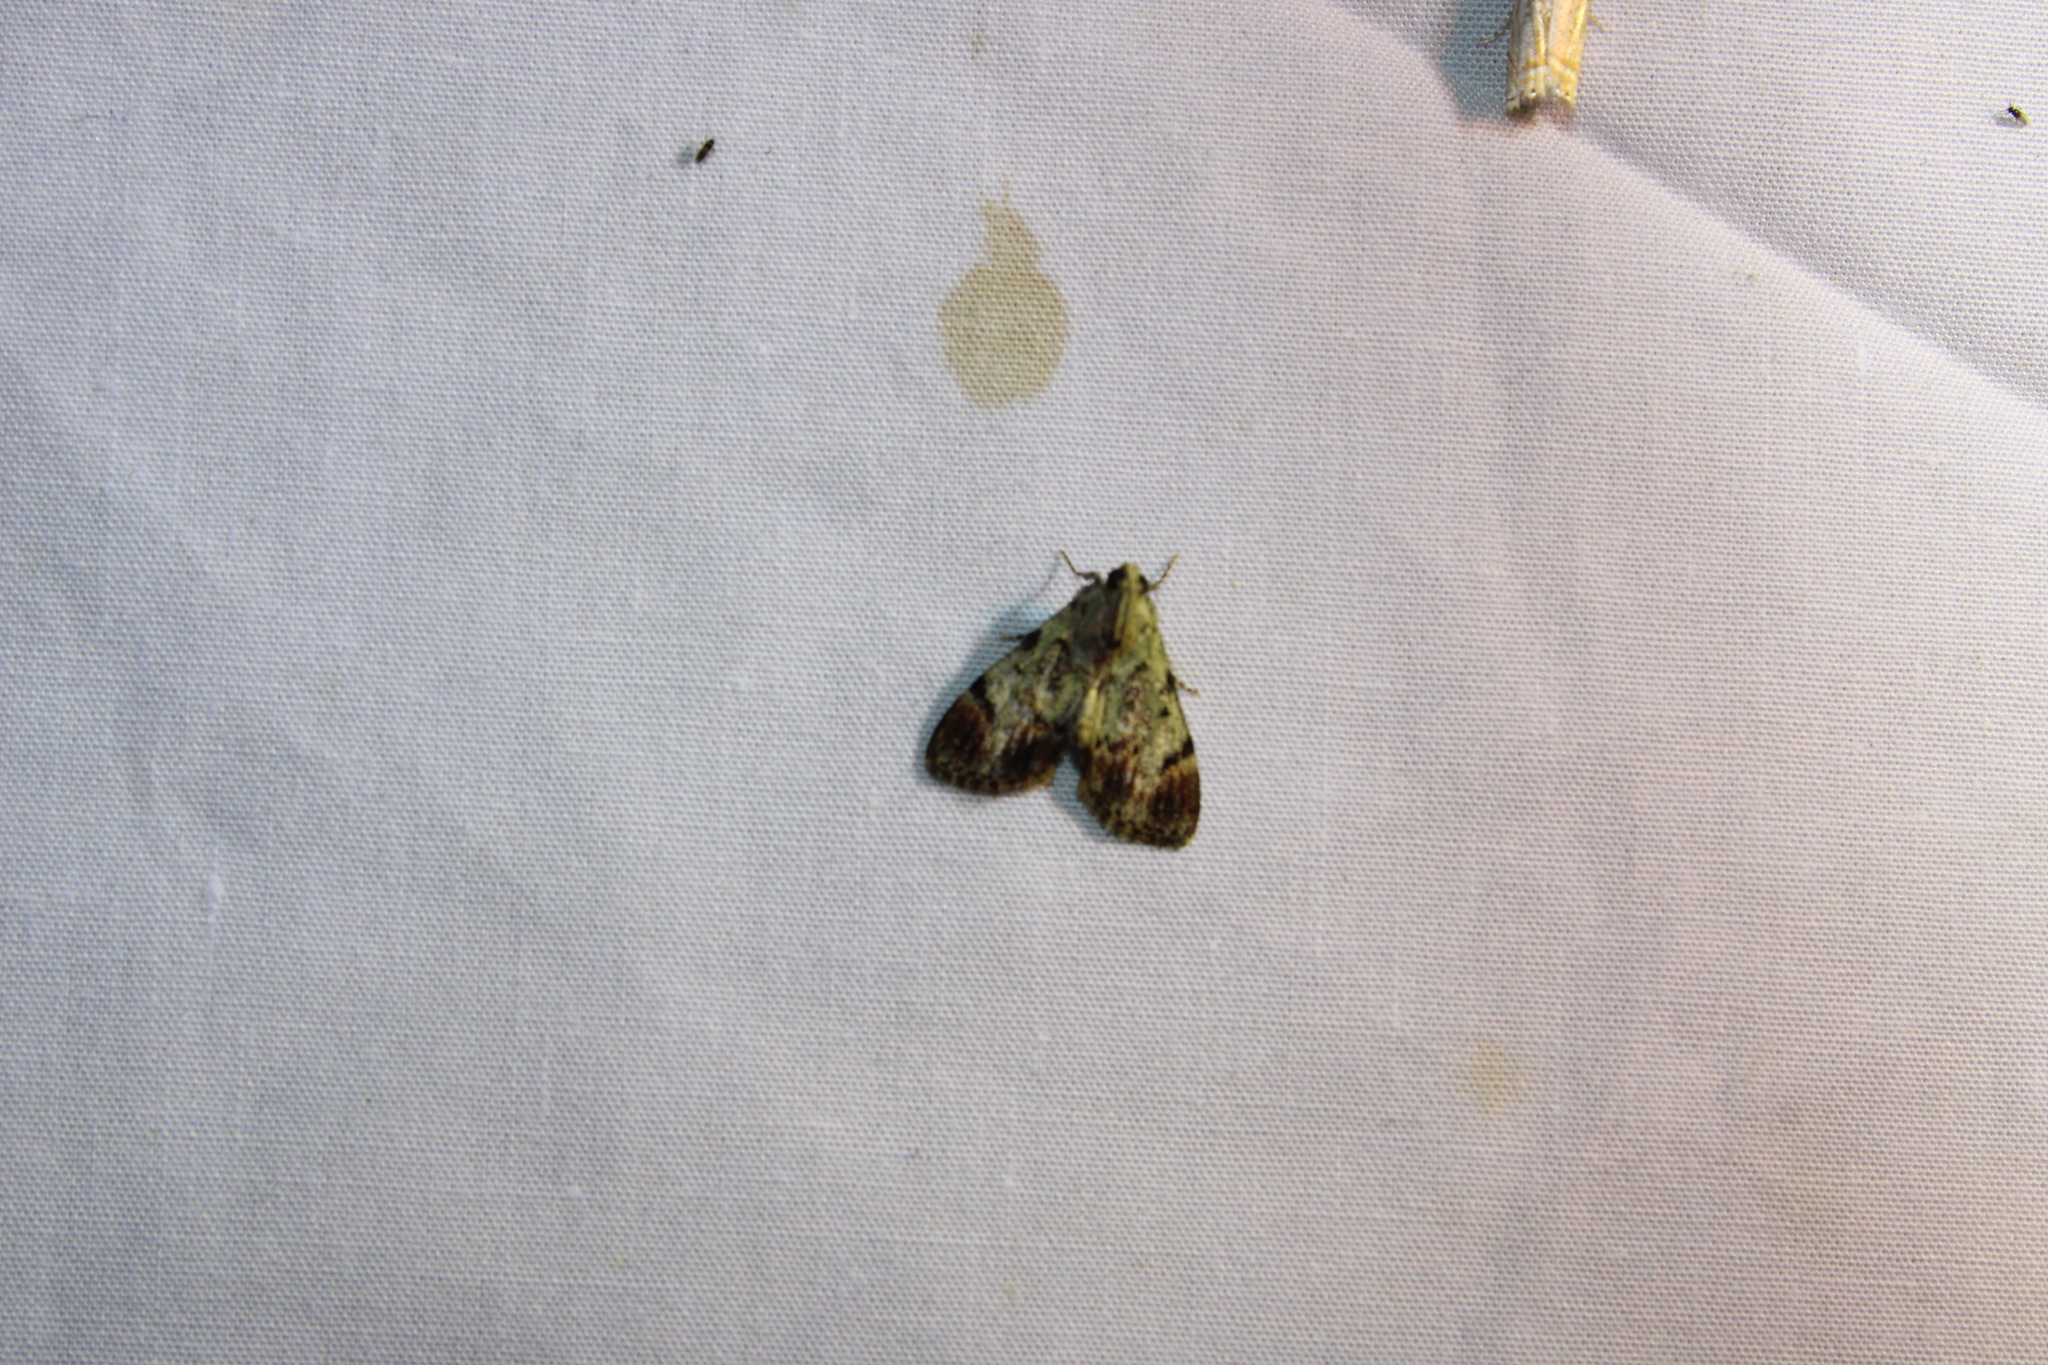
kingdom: Animalia
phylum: Arthropoda
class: Insecta
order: Lepidoptera
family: Pyralidae
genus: Epipaschia
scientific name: Epipaschia superatalis
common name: Dimorphic macalla moth
